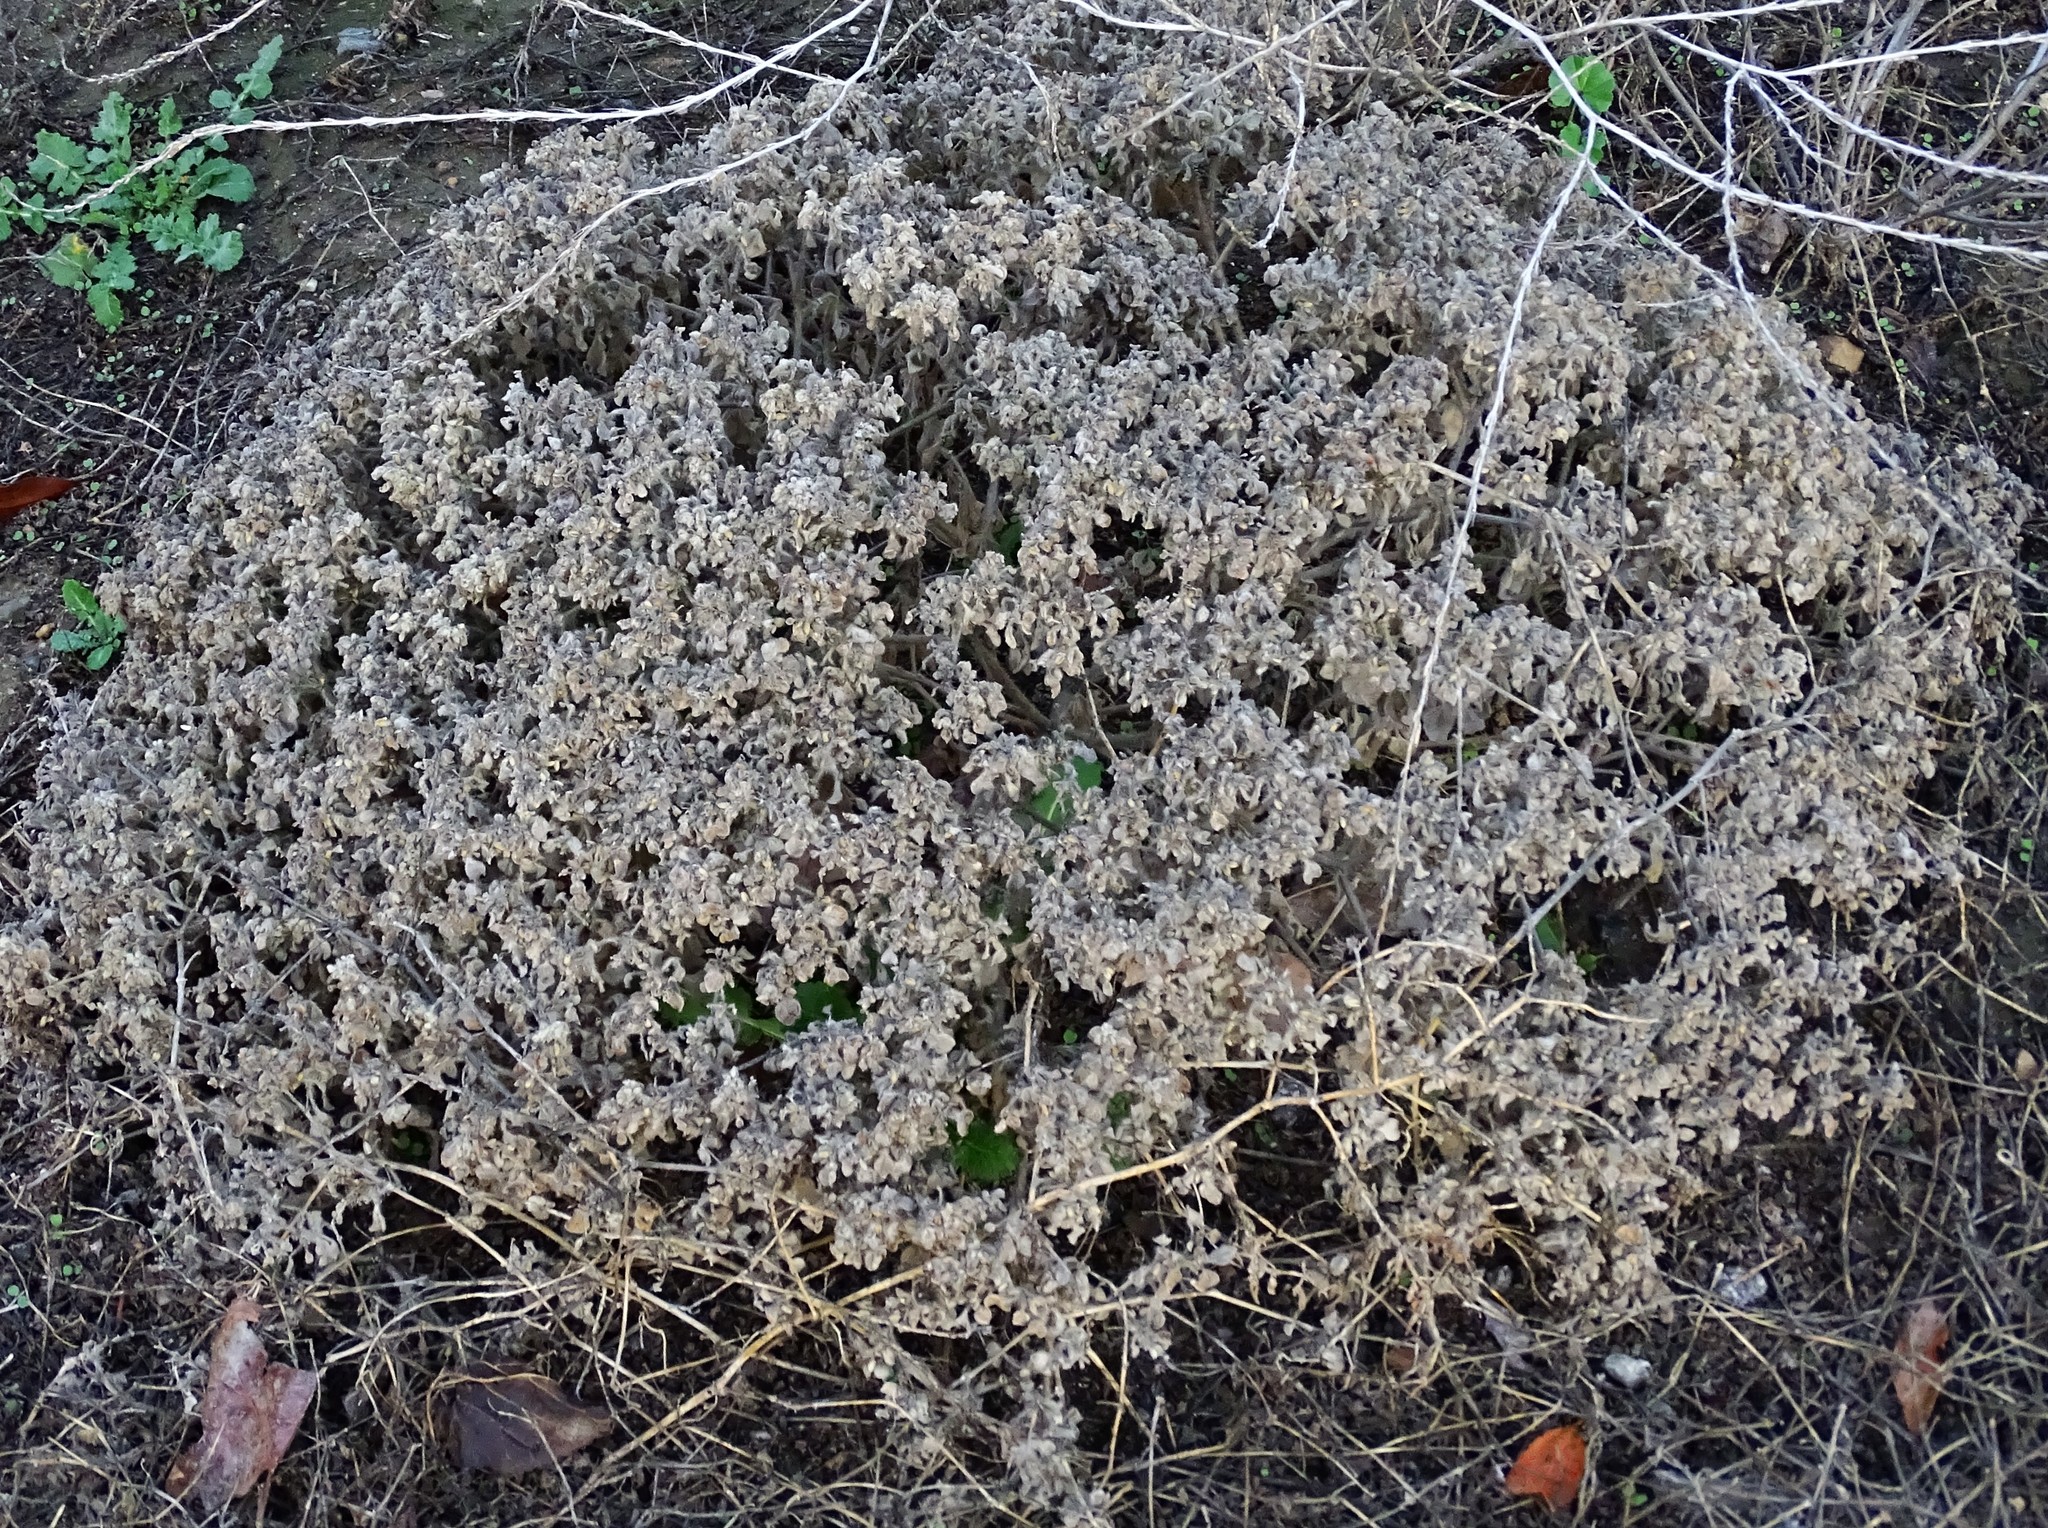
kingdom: Plantae
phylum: Tracheophyta
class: Magnoliopsida
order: Malpighiales
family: Euphorbiaceae
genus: Croton
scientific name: Croton setiger
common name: Dove weed
